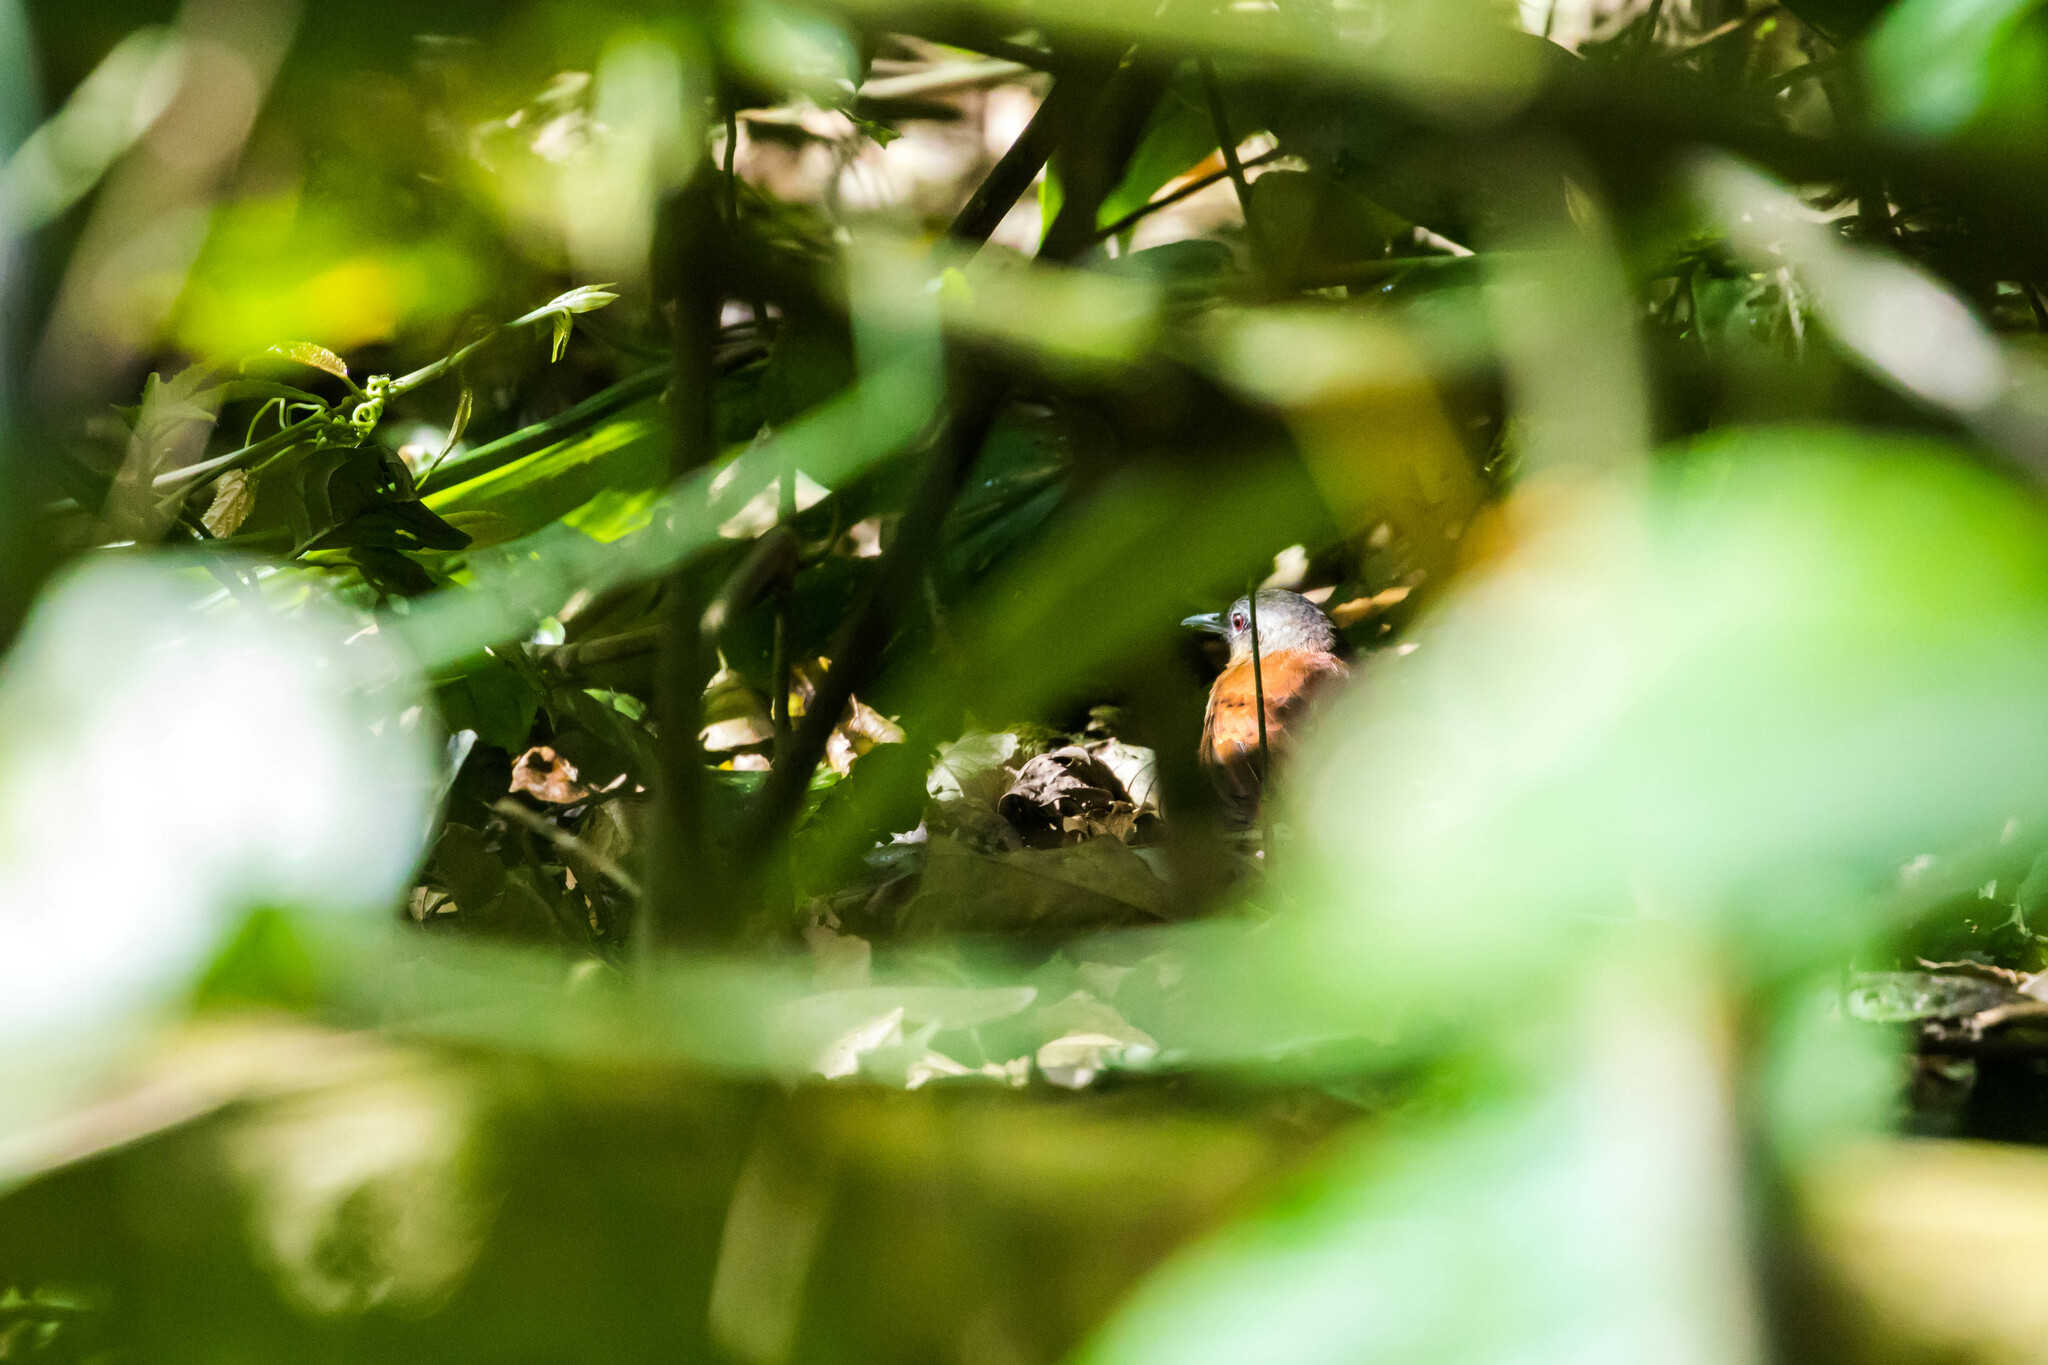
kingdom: Animalia
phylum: Chordata
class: Aves
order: Passeriformes
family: Thamnophilidae
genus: Myrmeciza
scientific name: Myrmeciza longipes
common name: White-bellied antbird
